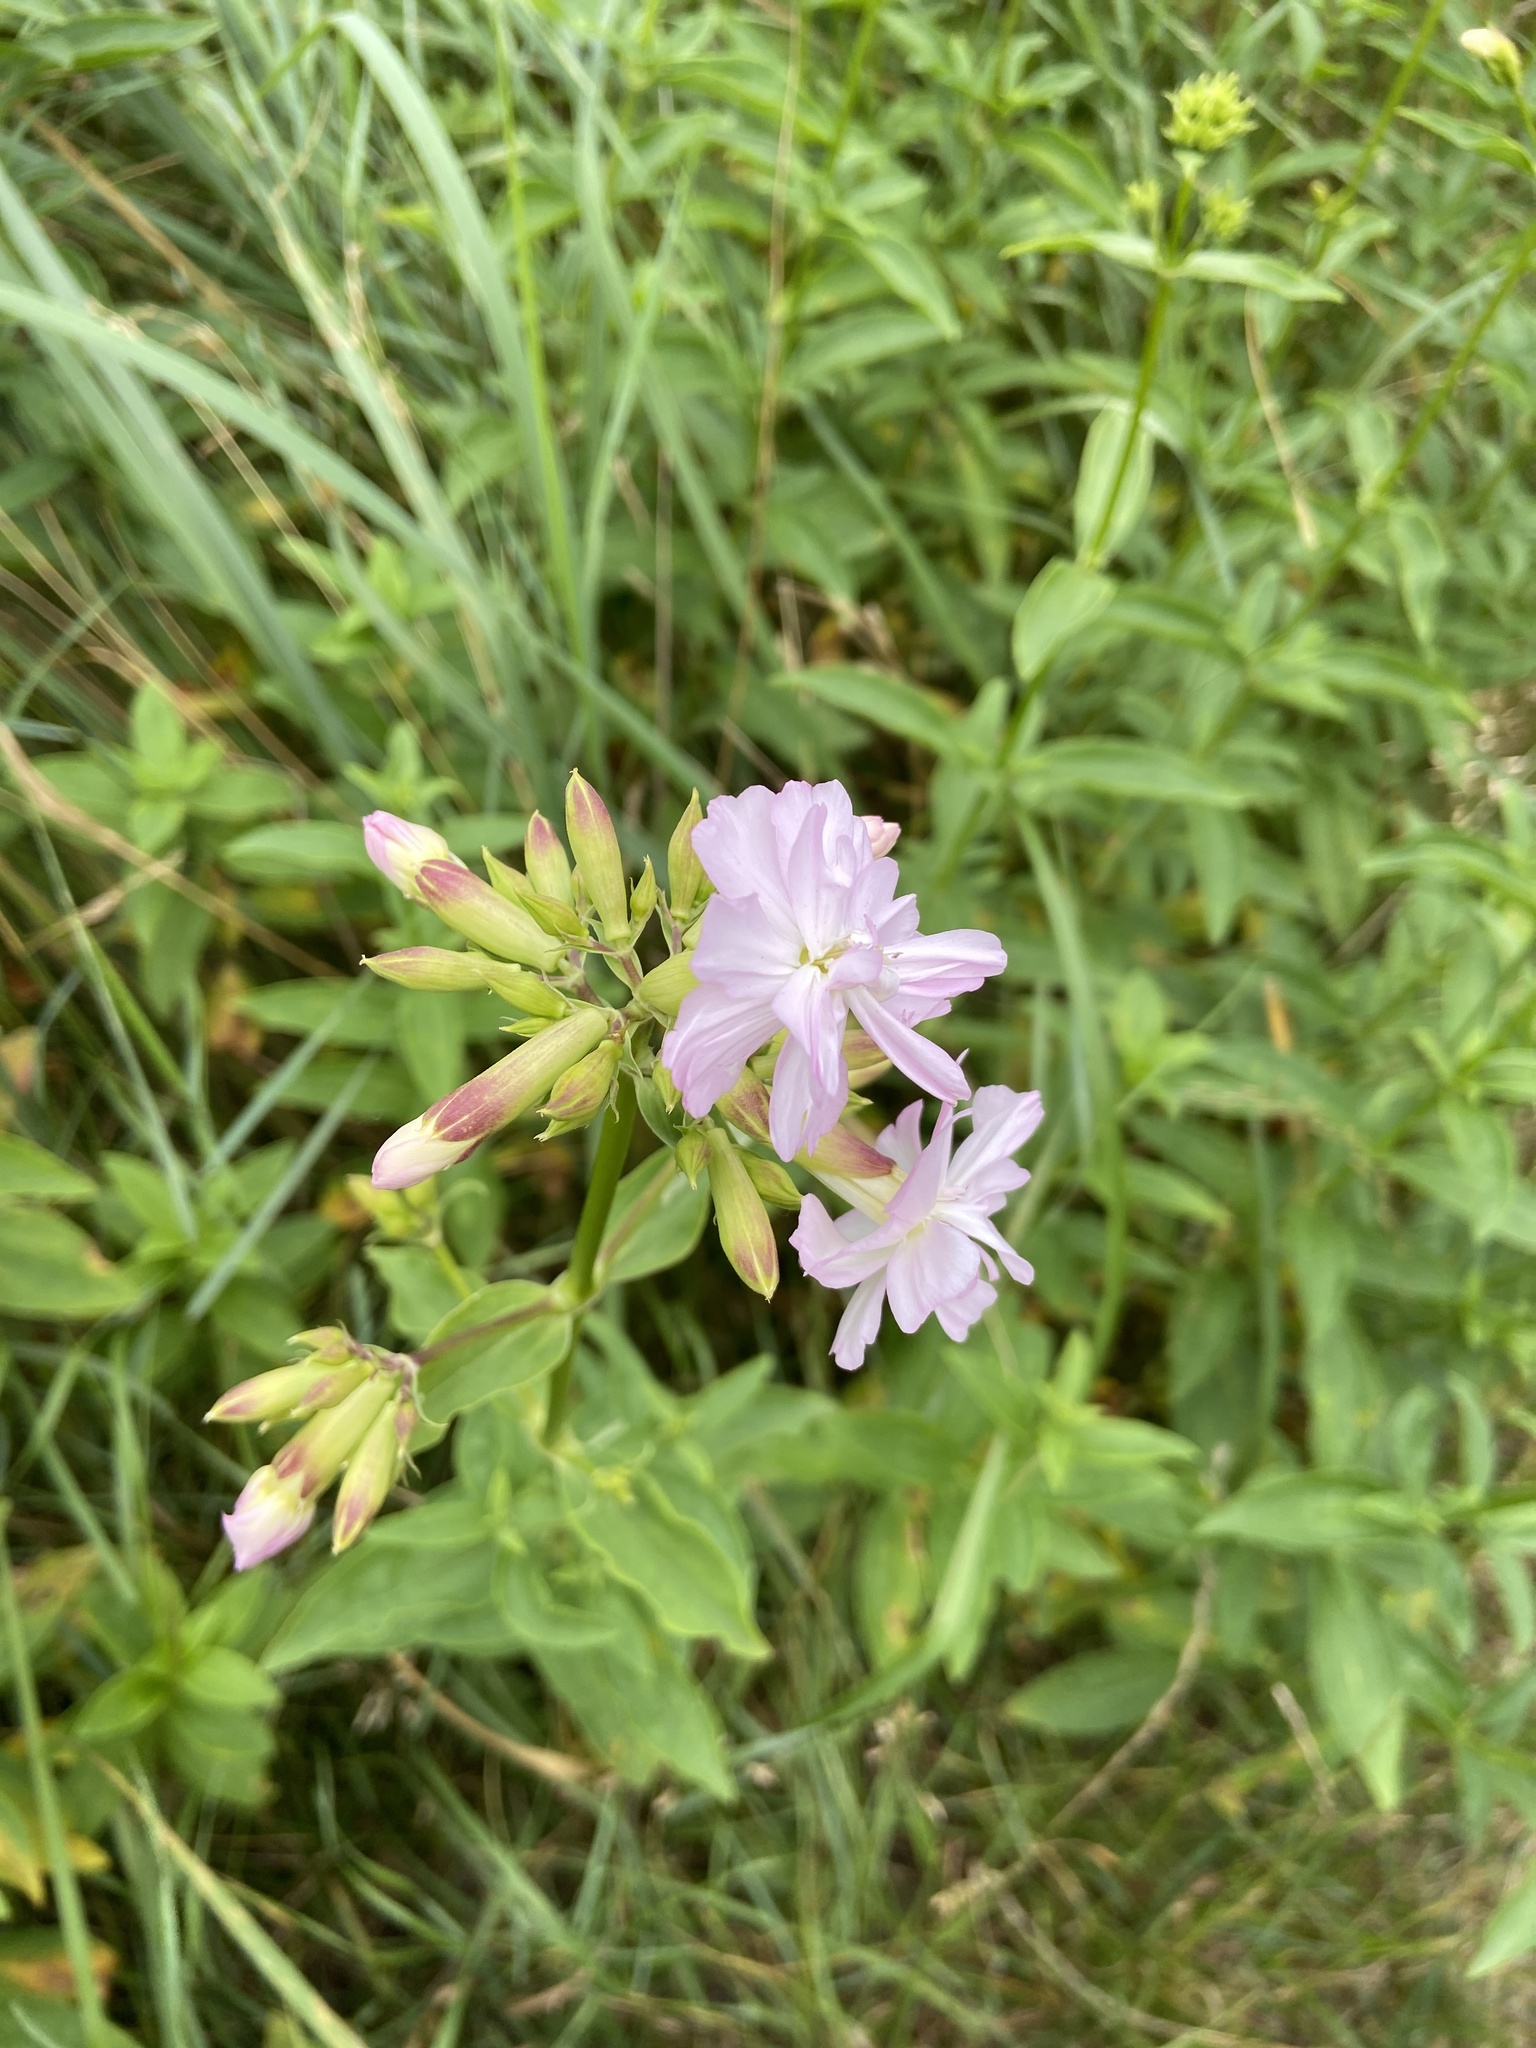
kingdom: Plantae
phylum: Tracheophyta
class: Magnoliopsida
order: Caryophyllales
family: Caryophyllaceae
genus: Saponaria
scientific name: Saponaria officinalis
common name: Soapwort
